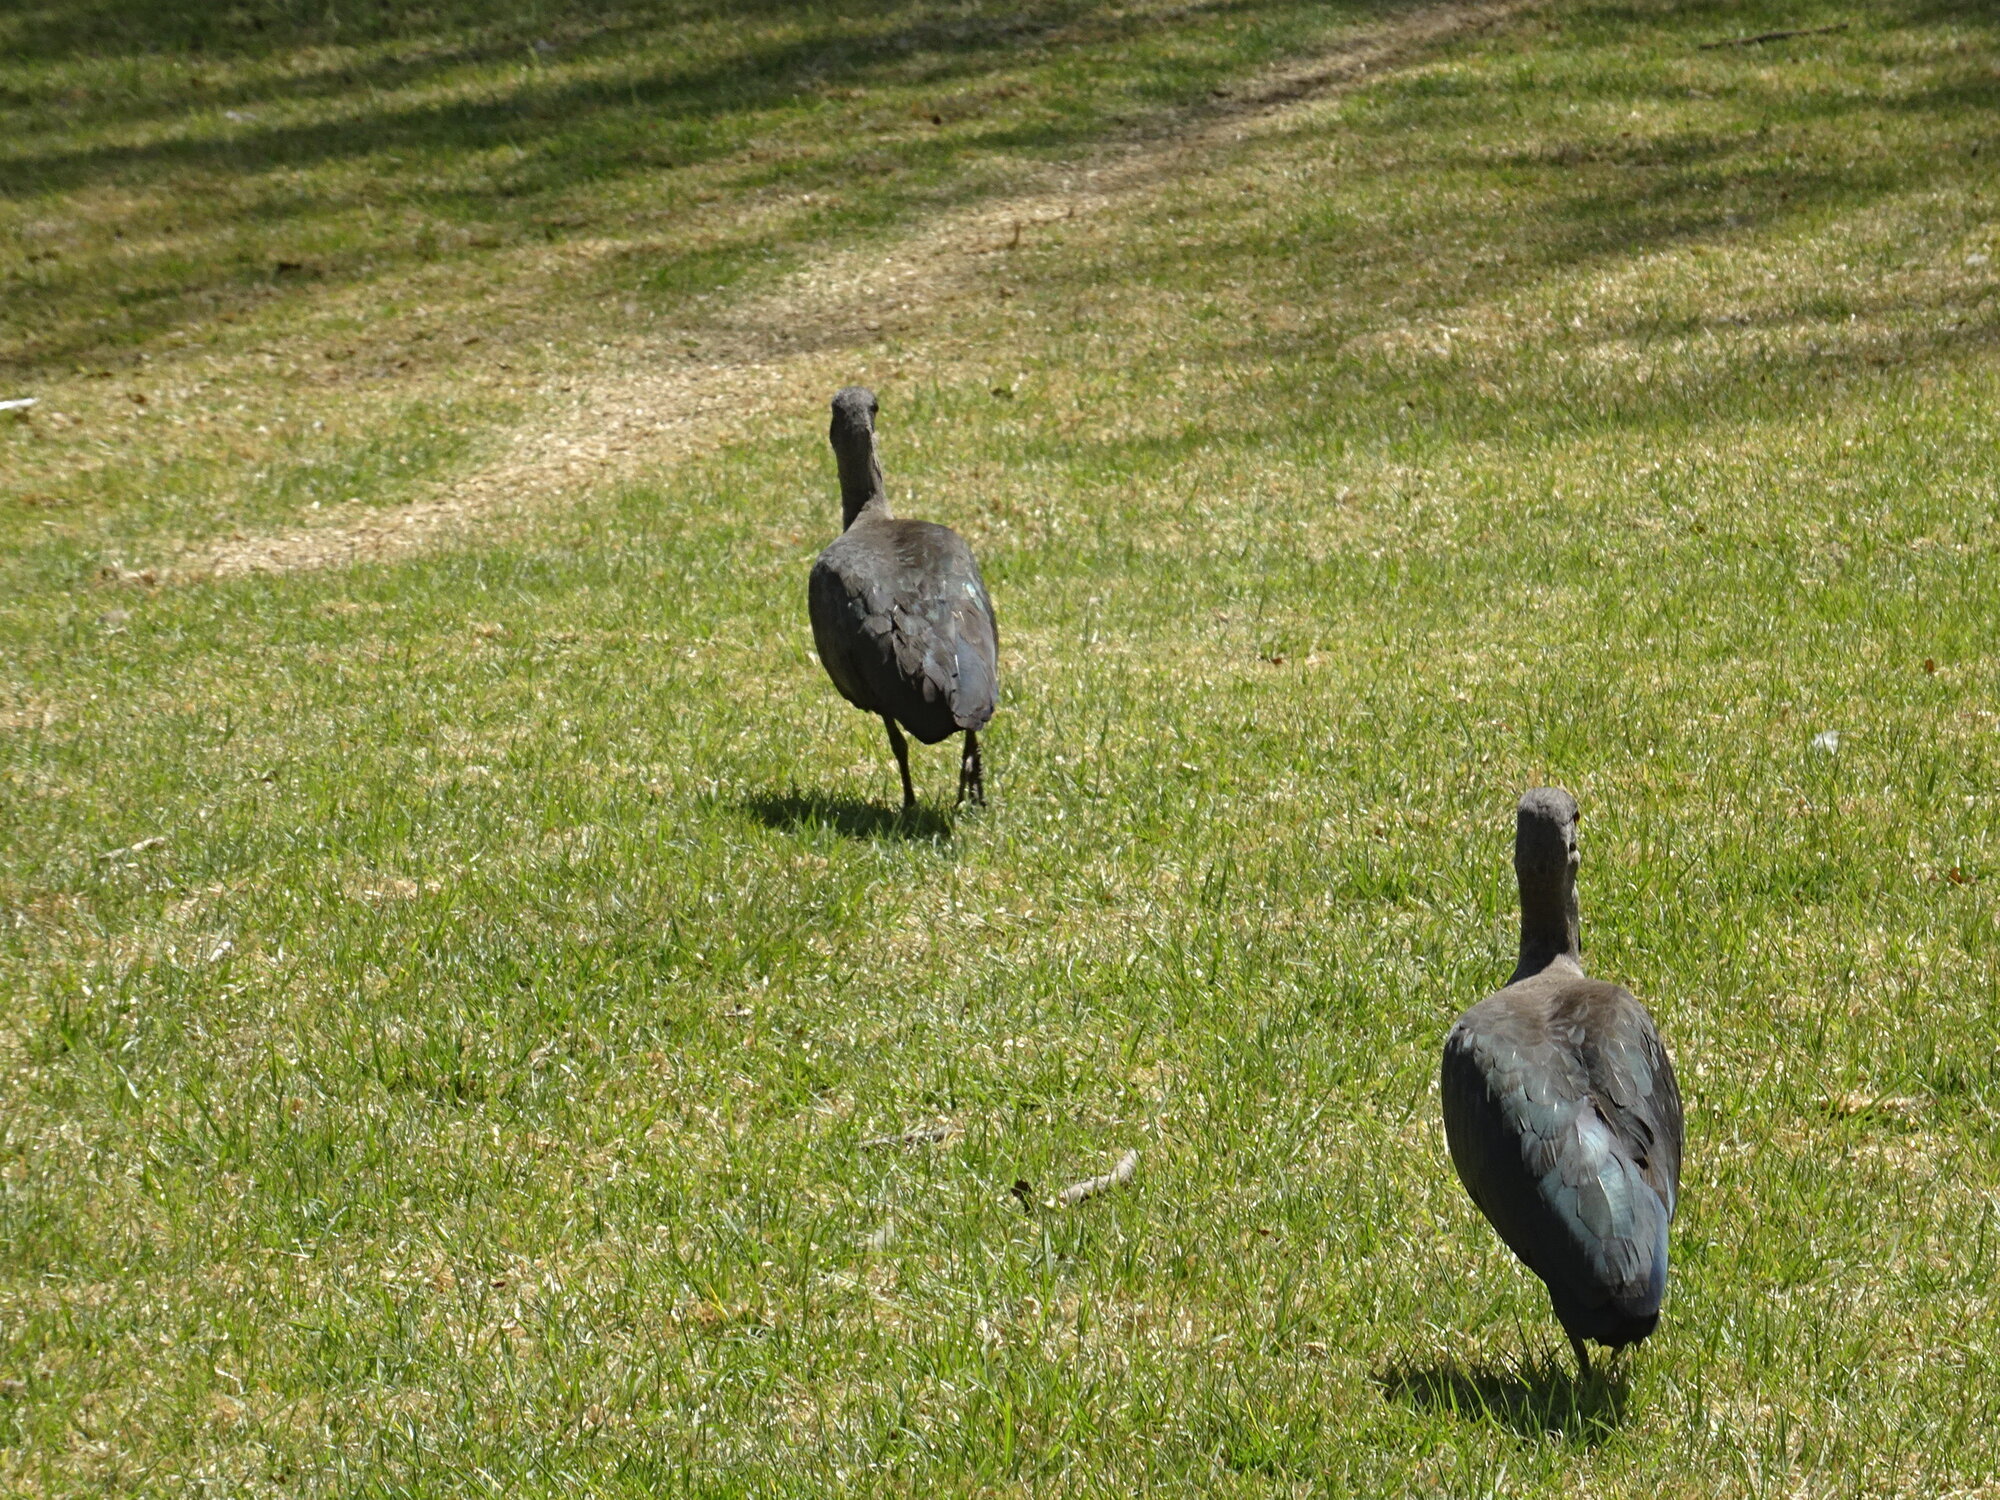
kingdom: Animalia
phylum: Chordata
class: Aves
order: Pelecaniformes
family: Threskiornithidae
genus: Bostrychia
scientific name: Bostrychia hagedash
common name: Hadada ibis
